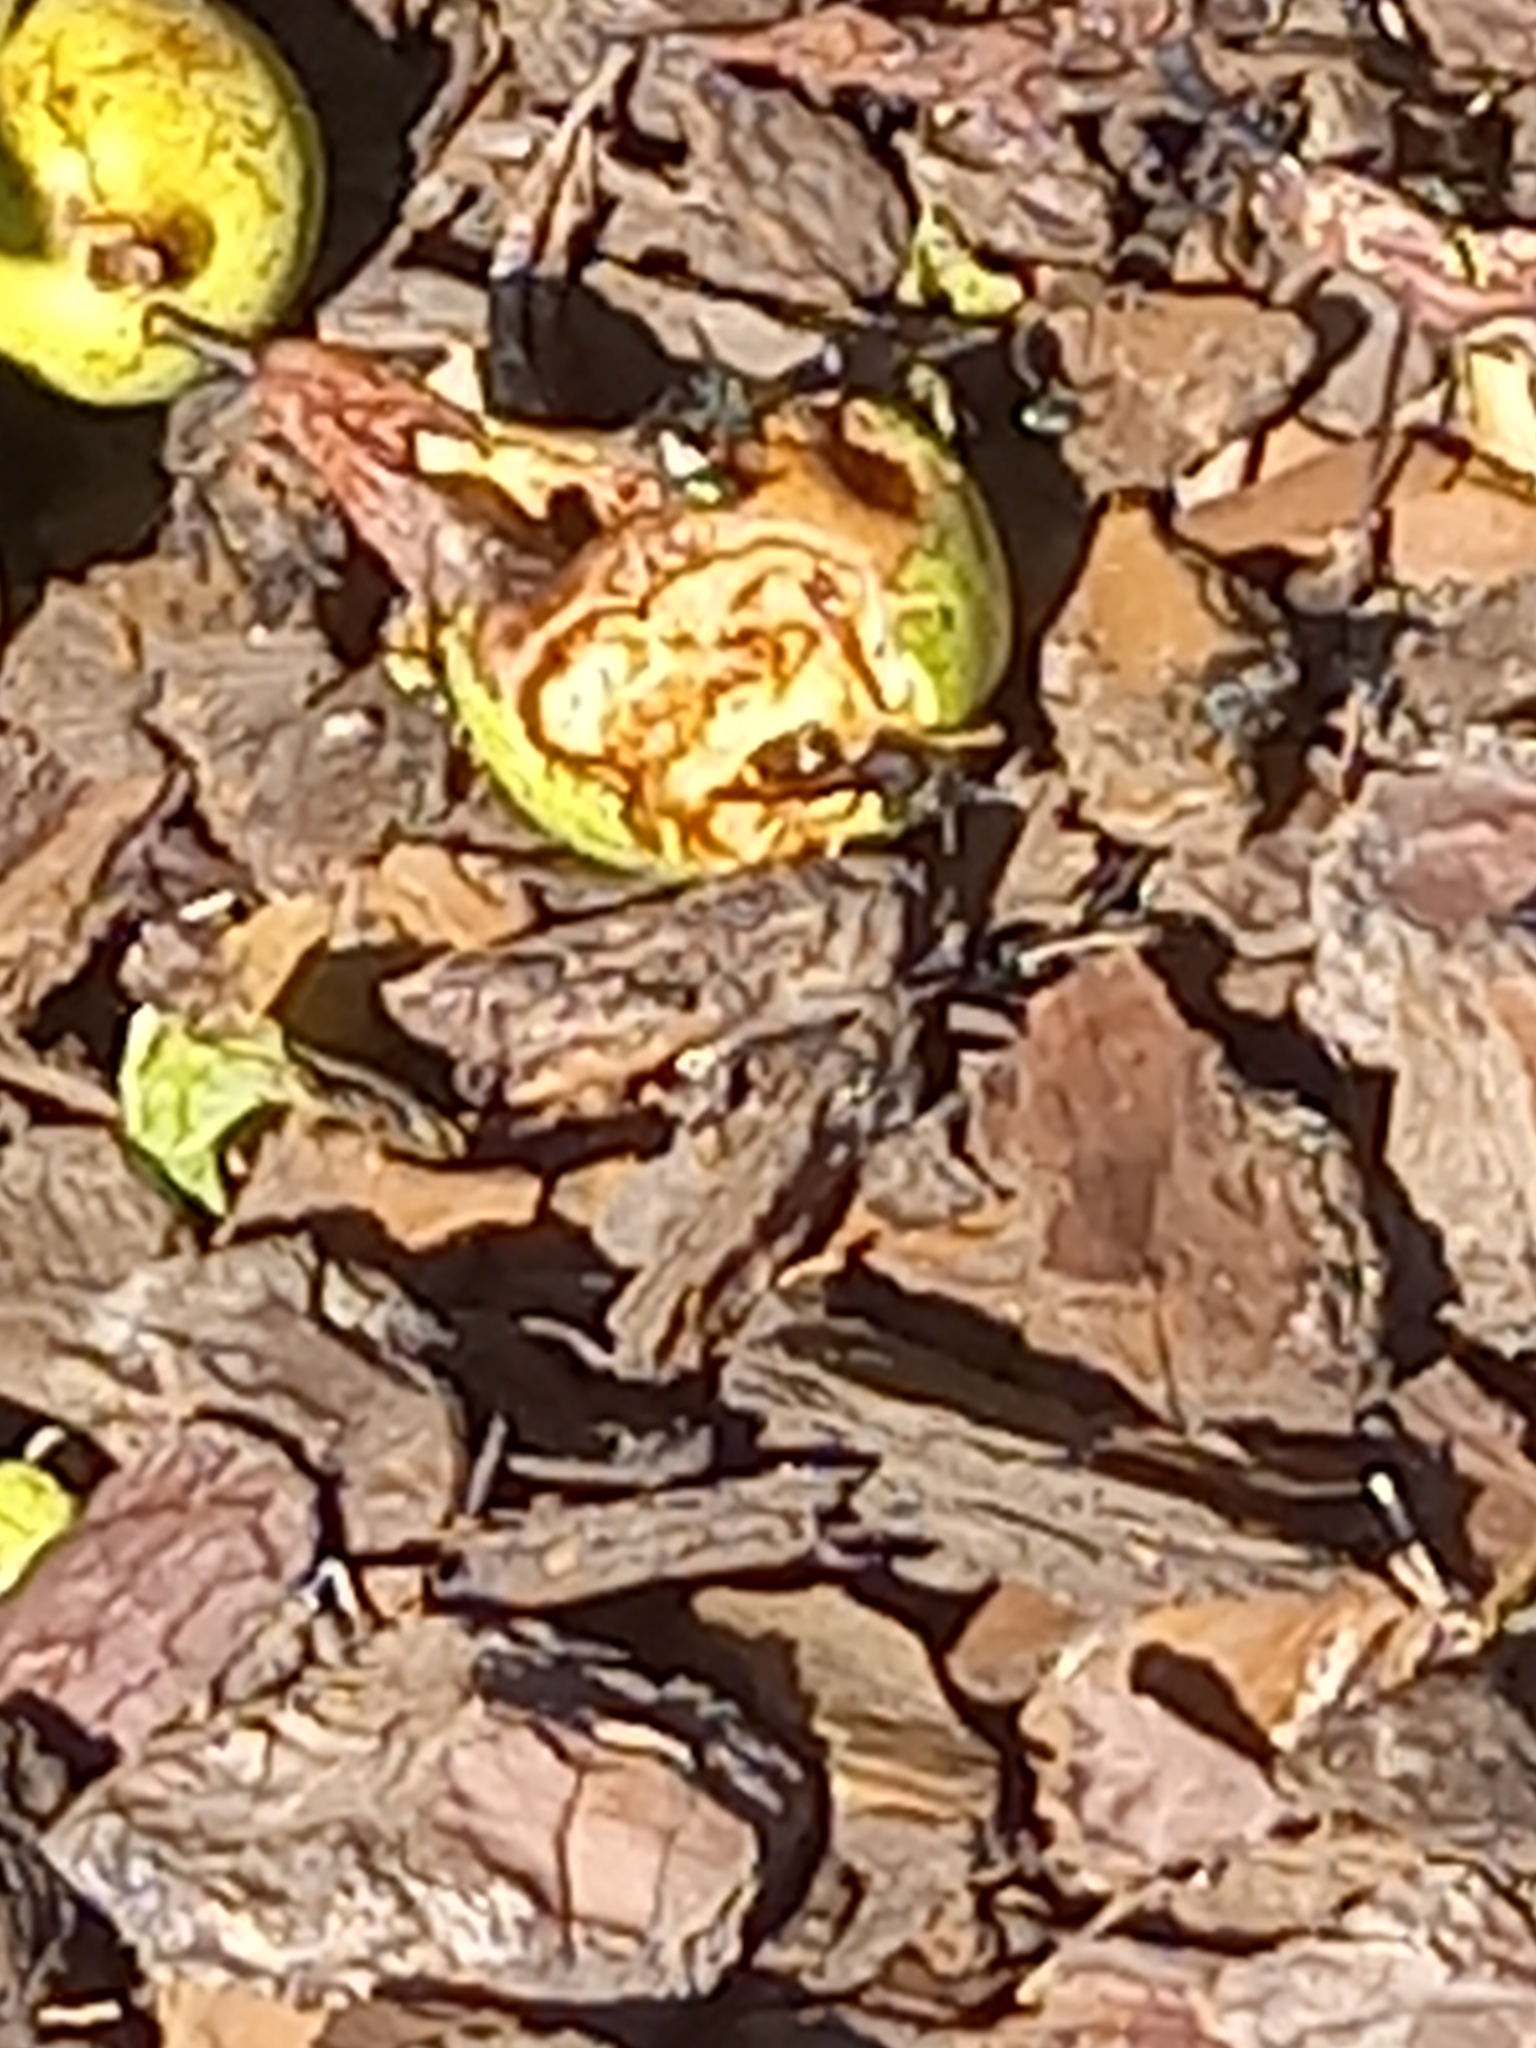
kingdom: Animalia
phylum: Arthropoda
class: Insecta
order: Hymenoptera
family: Vespidae
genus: Vespa
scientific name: Vespa velutina
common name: Asian hornet
